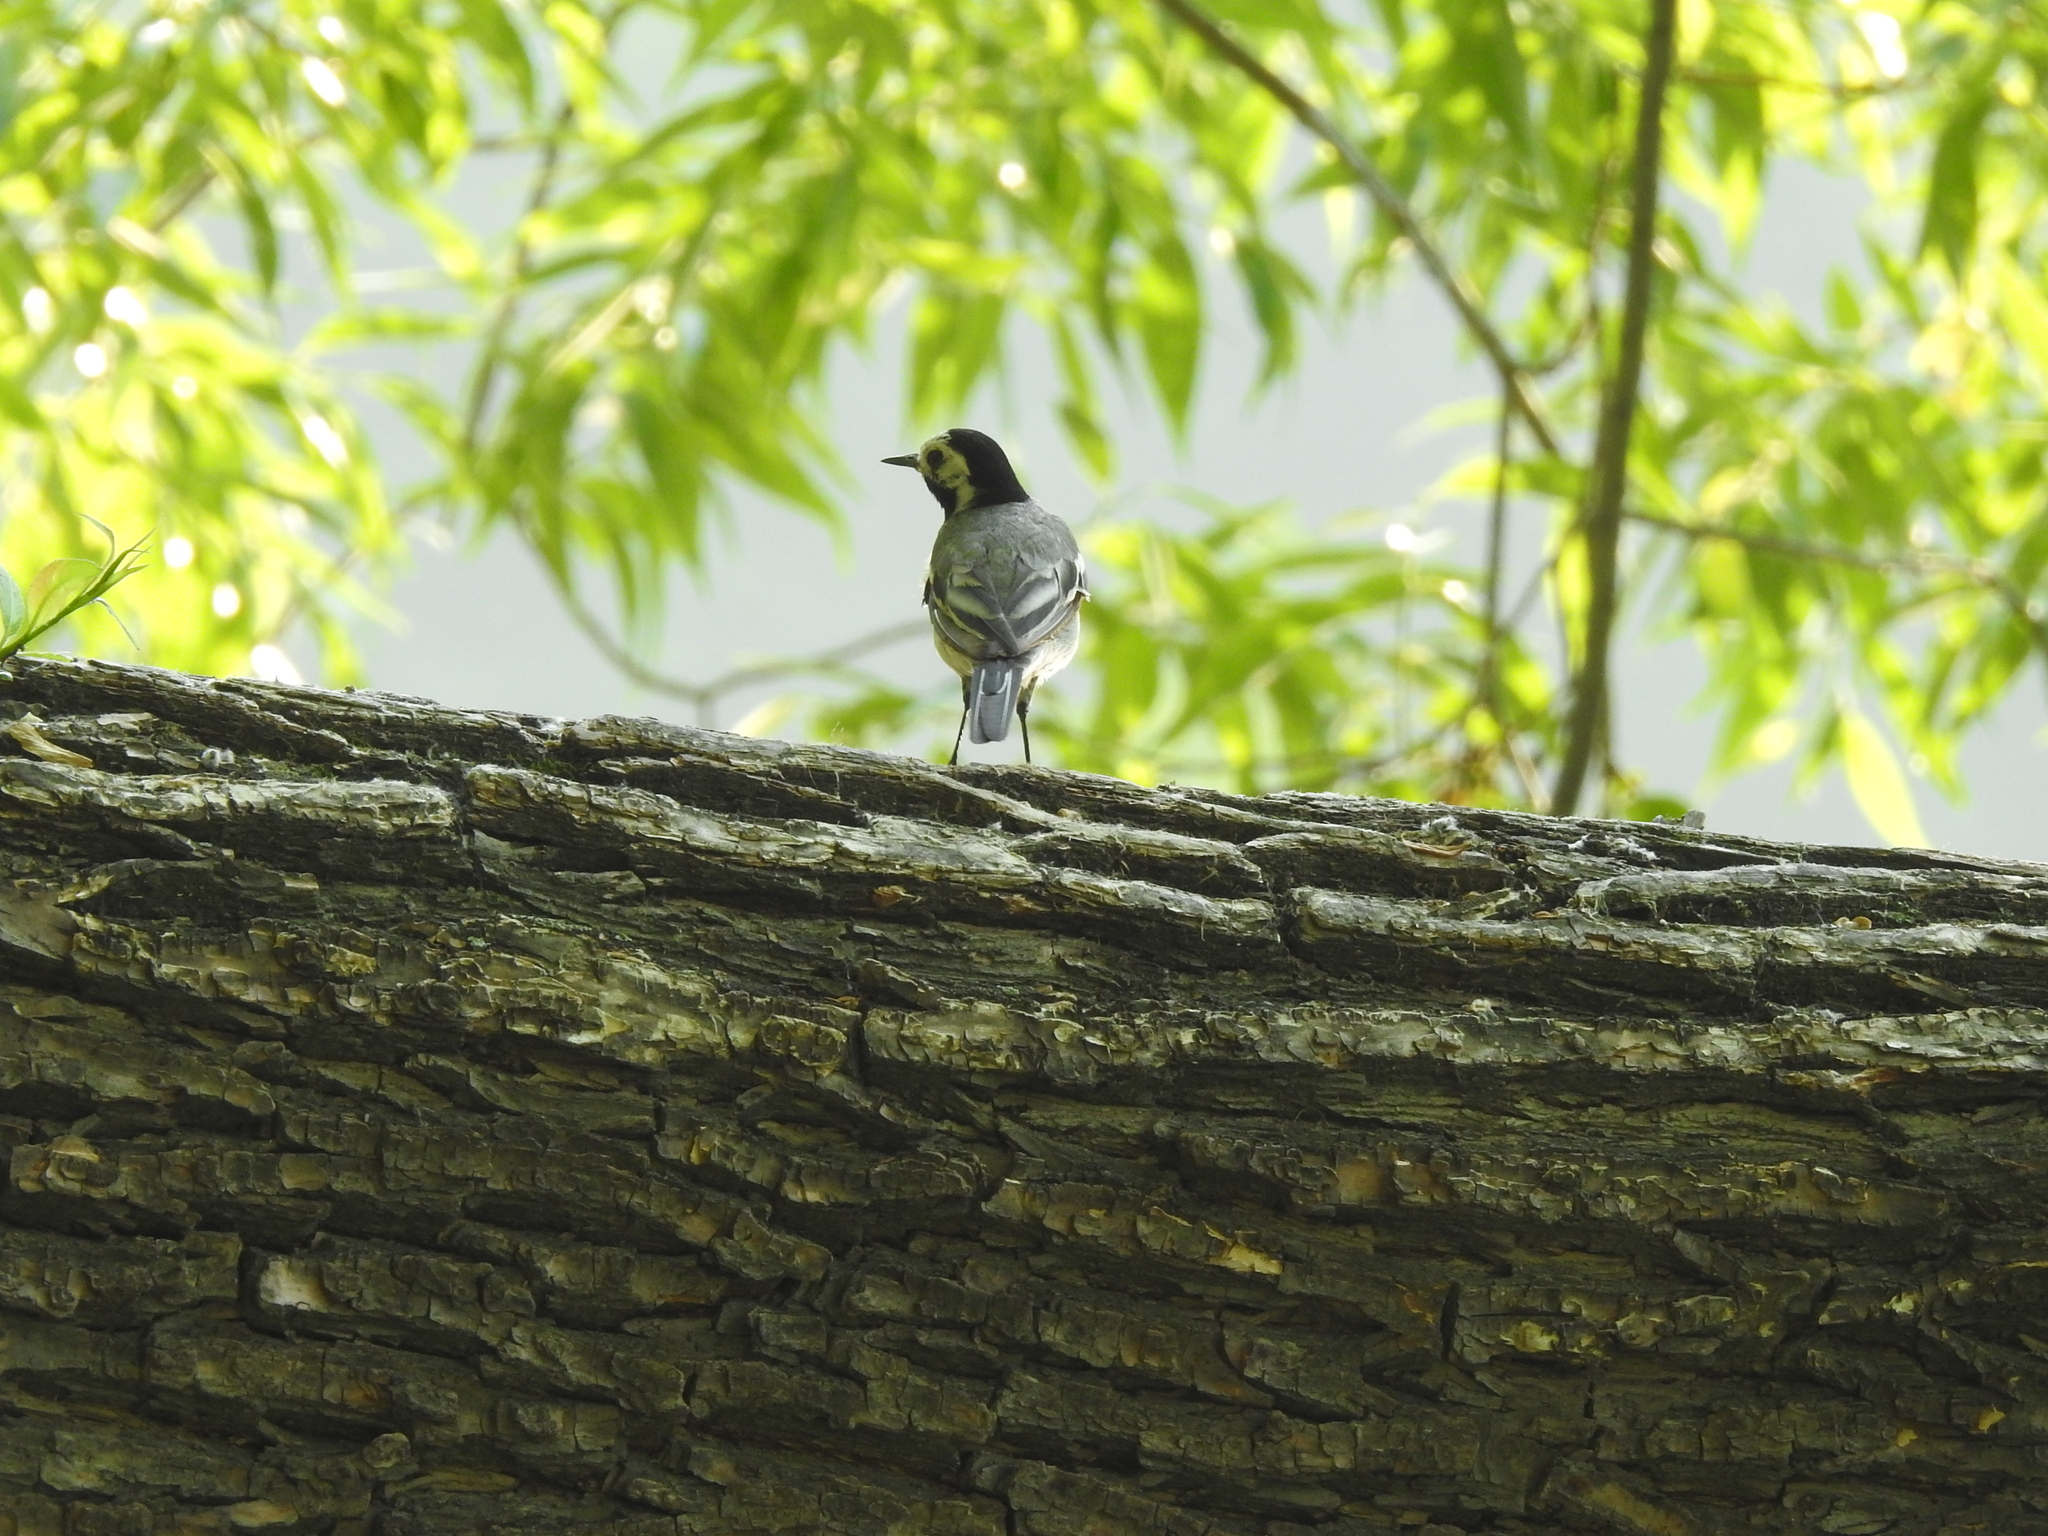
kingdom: Animalia
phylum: Chordata
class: Aves
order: Passeriformes
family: Motacillidae
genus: Motacilla
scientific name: Motacilla alba
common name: White wagtail
